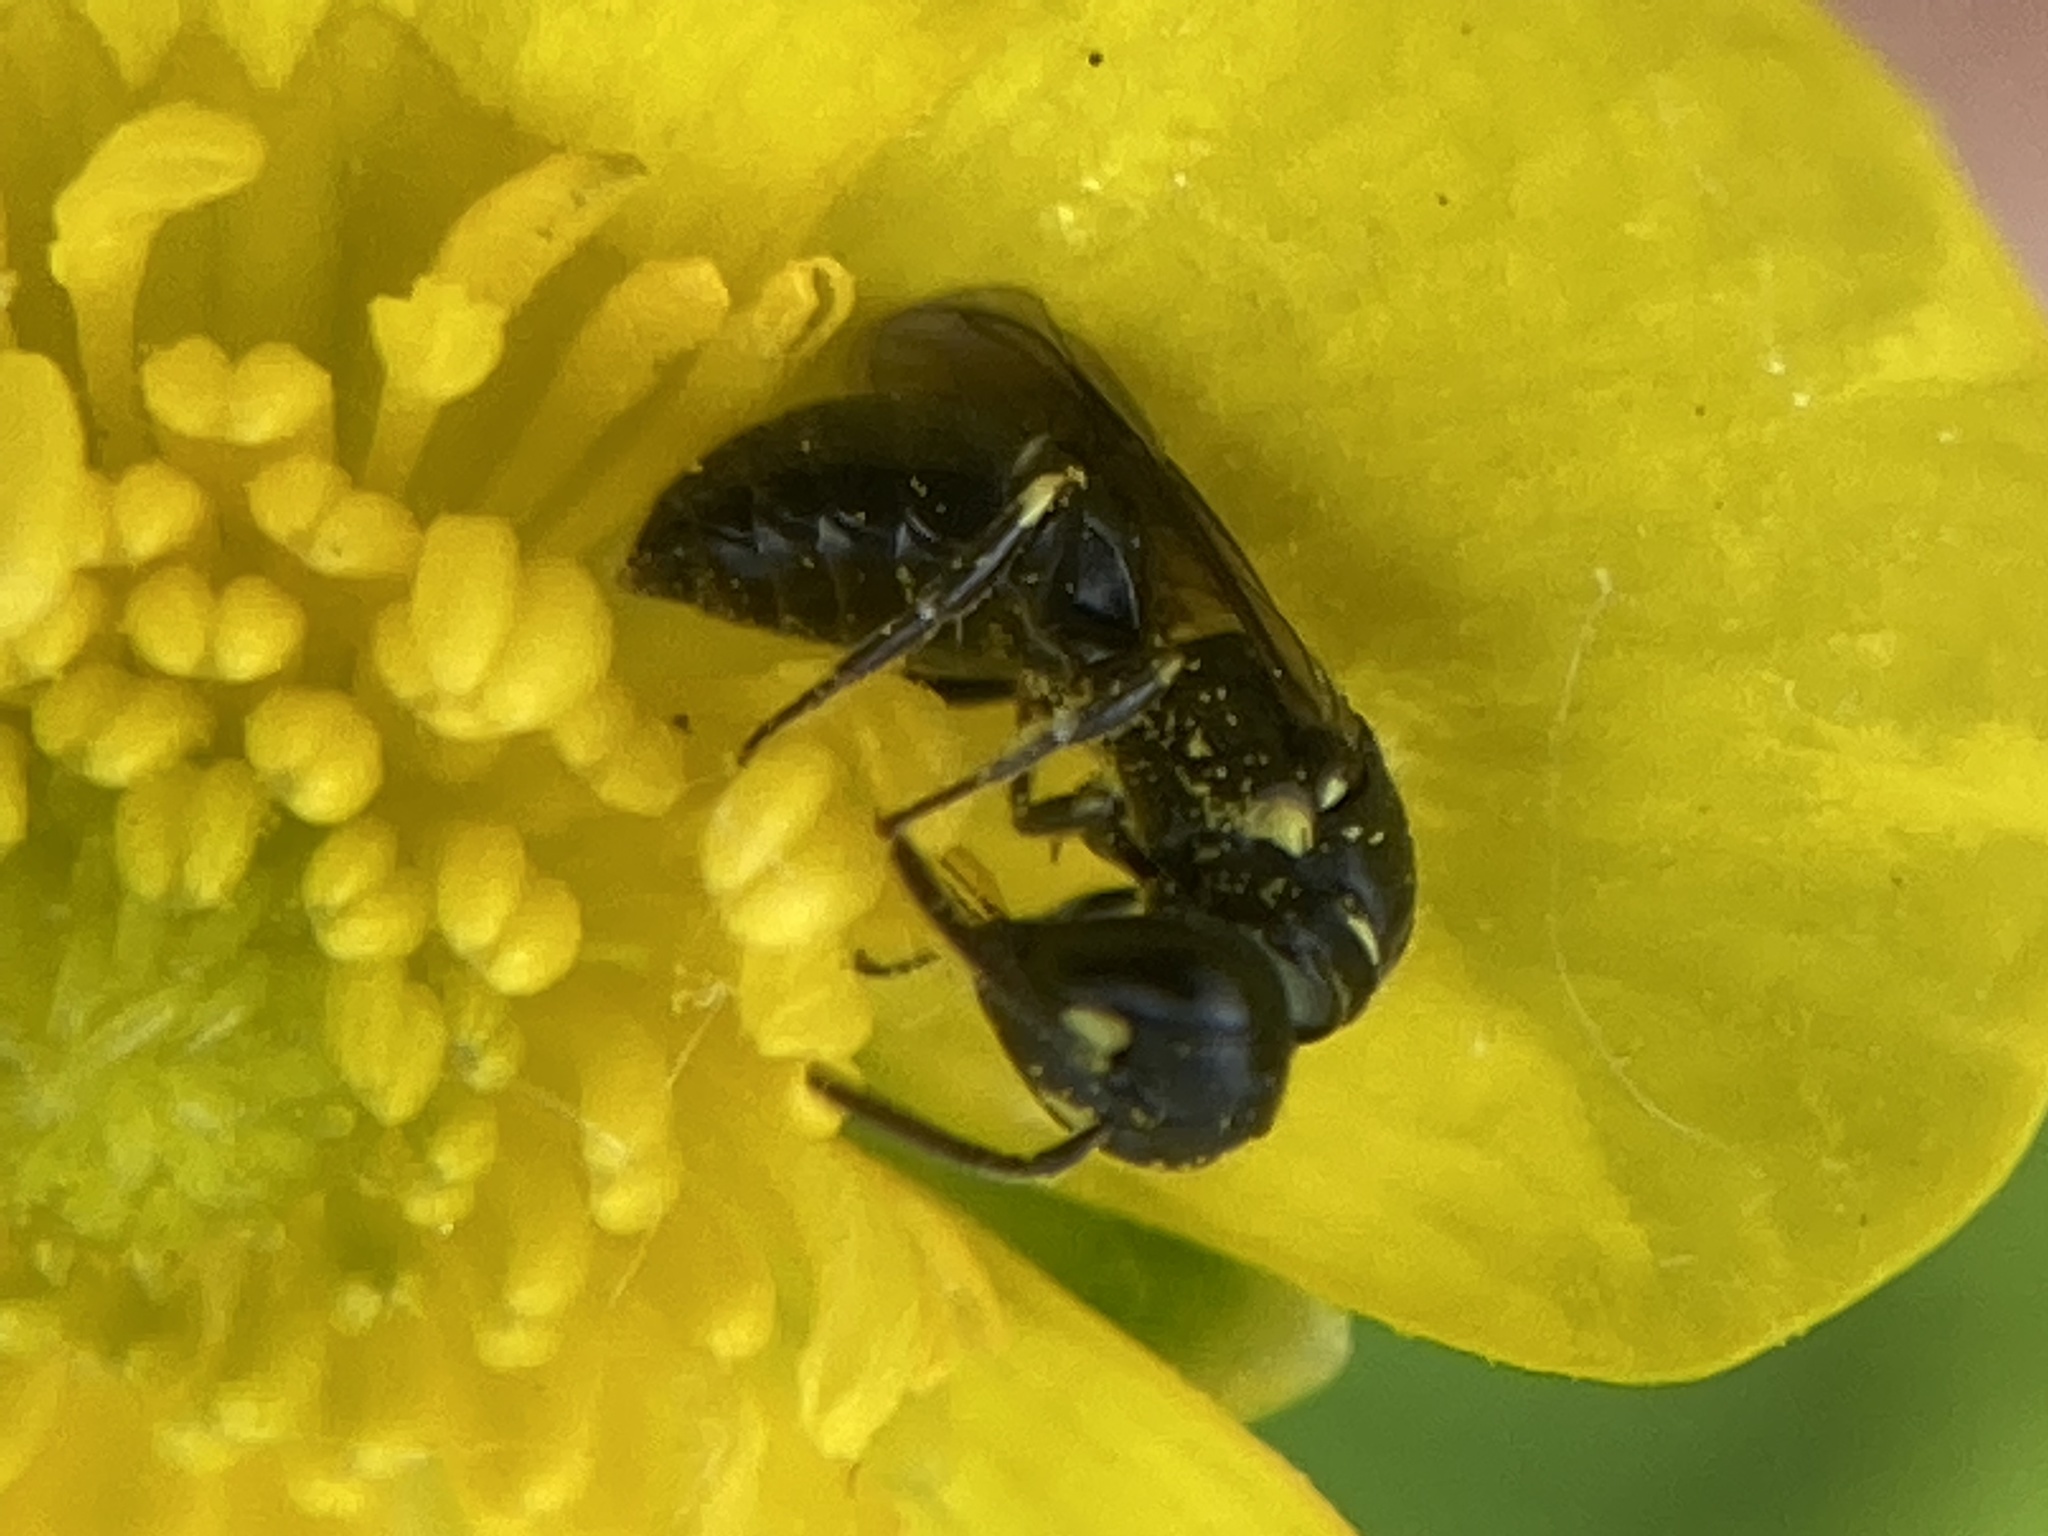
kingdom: Animalia
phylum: Arthropoda
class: Insecta
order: Hymenoptera
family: Colletidae
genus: Hylaeus
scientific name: Hylaeus
